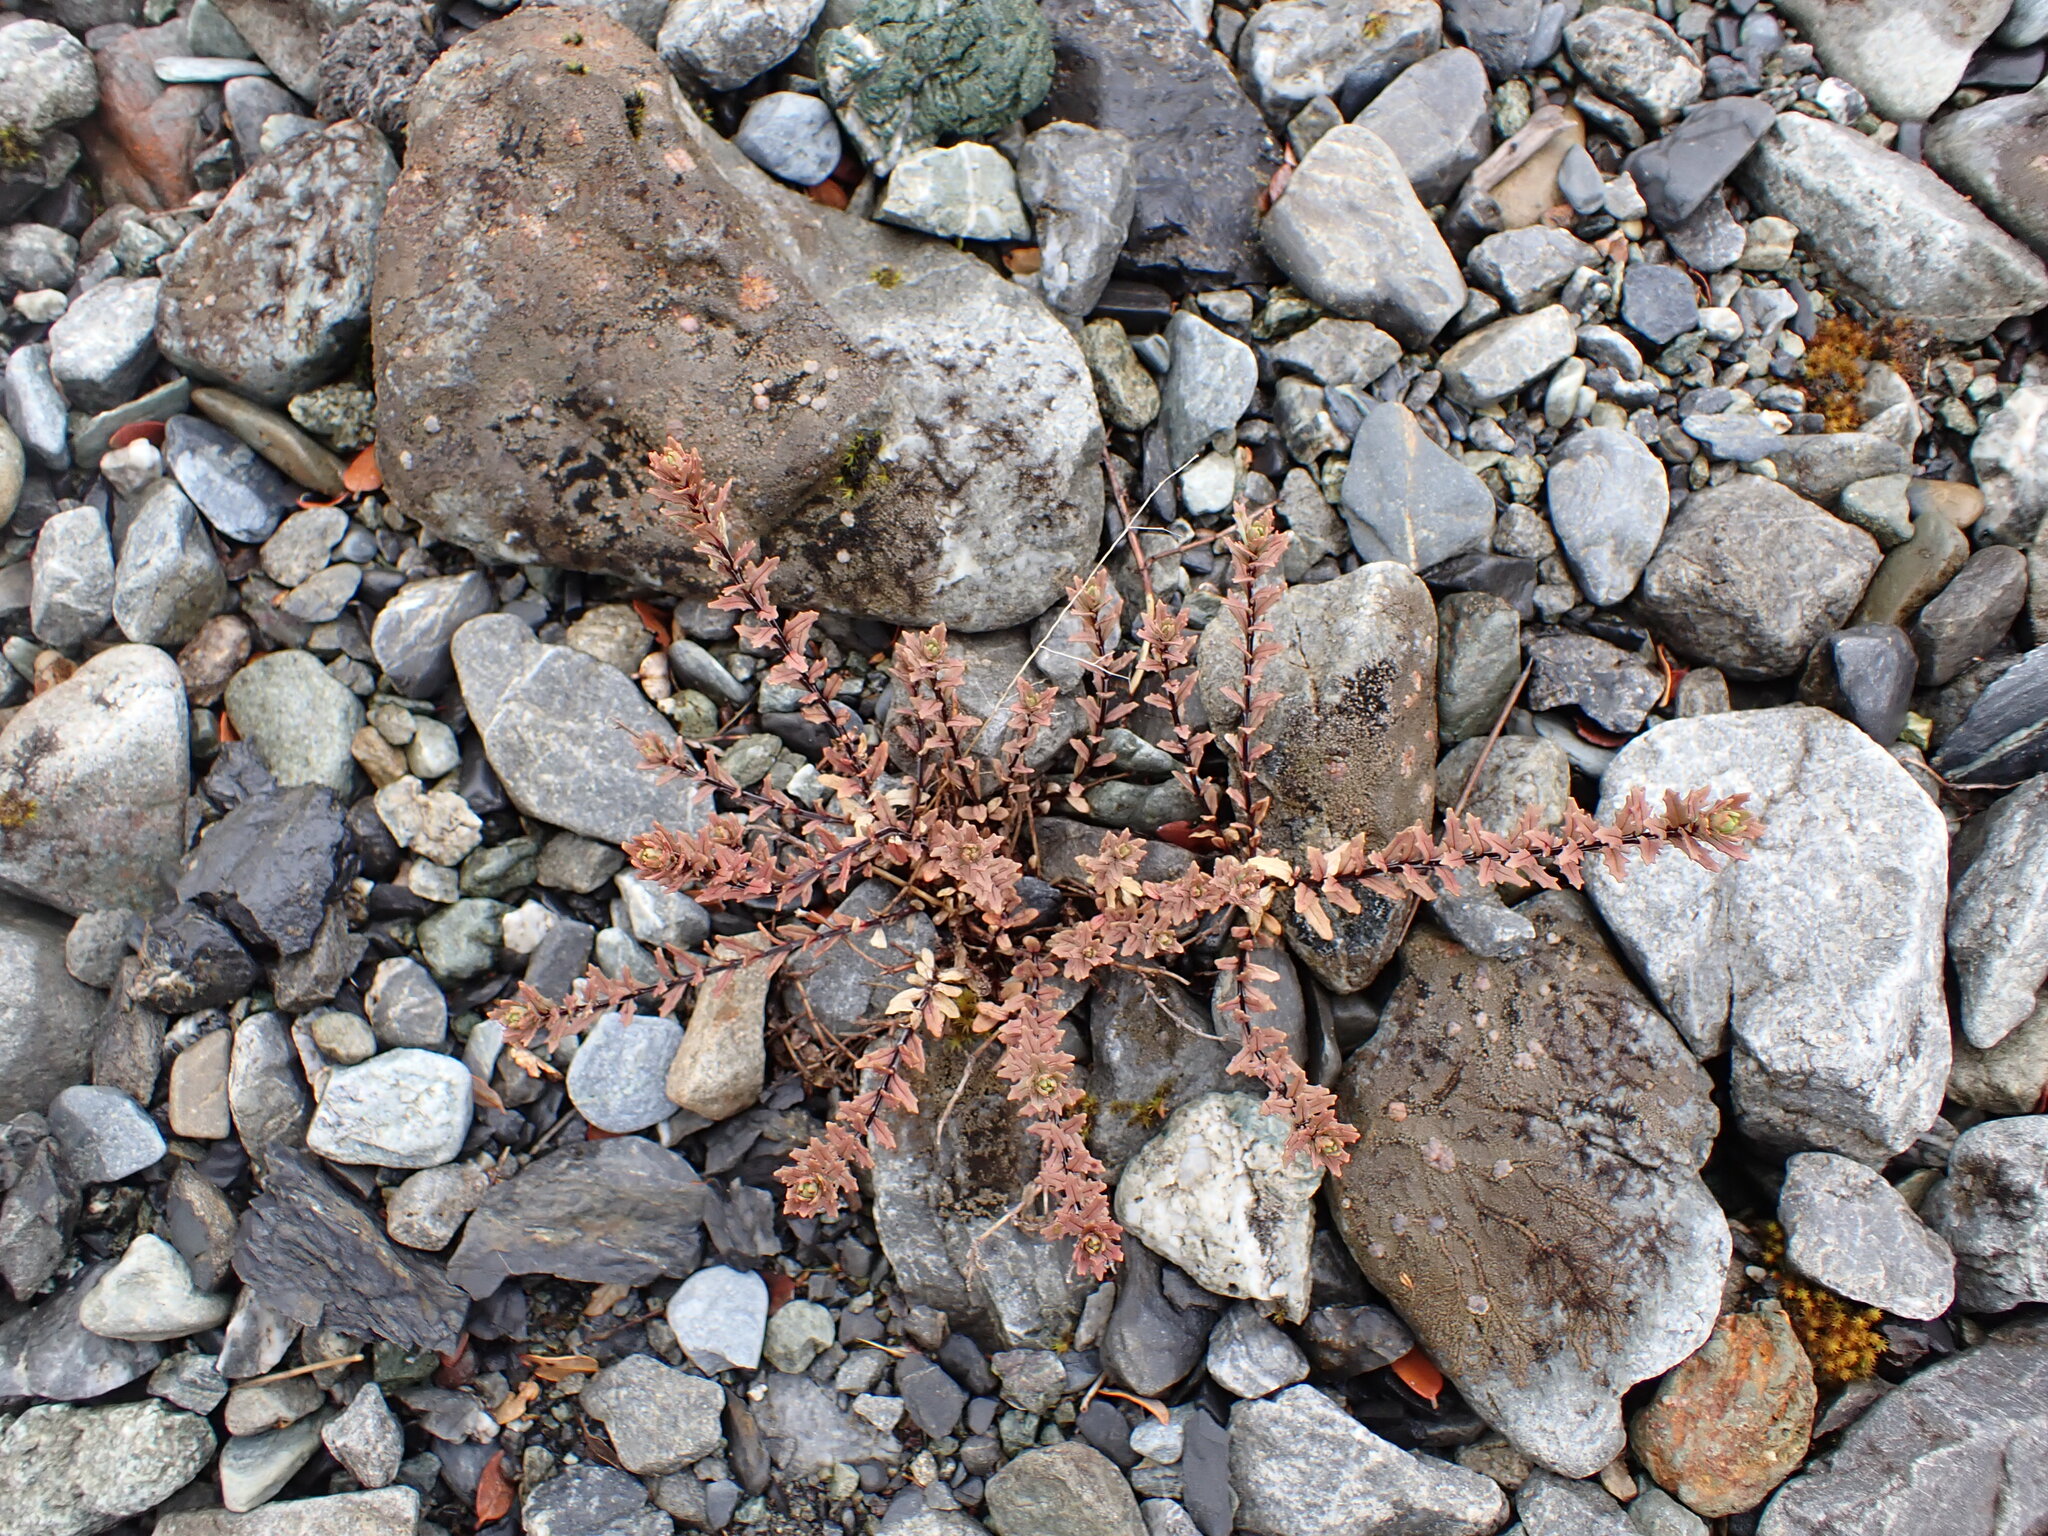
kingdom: Plantae
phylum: Tracheophyta
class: Magnoliopsida
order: Myrtales
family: Onagraceae
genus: Epilobium
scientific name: Epilobium melanocaulon
